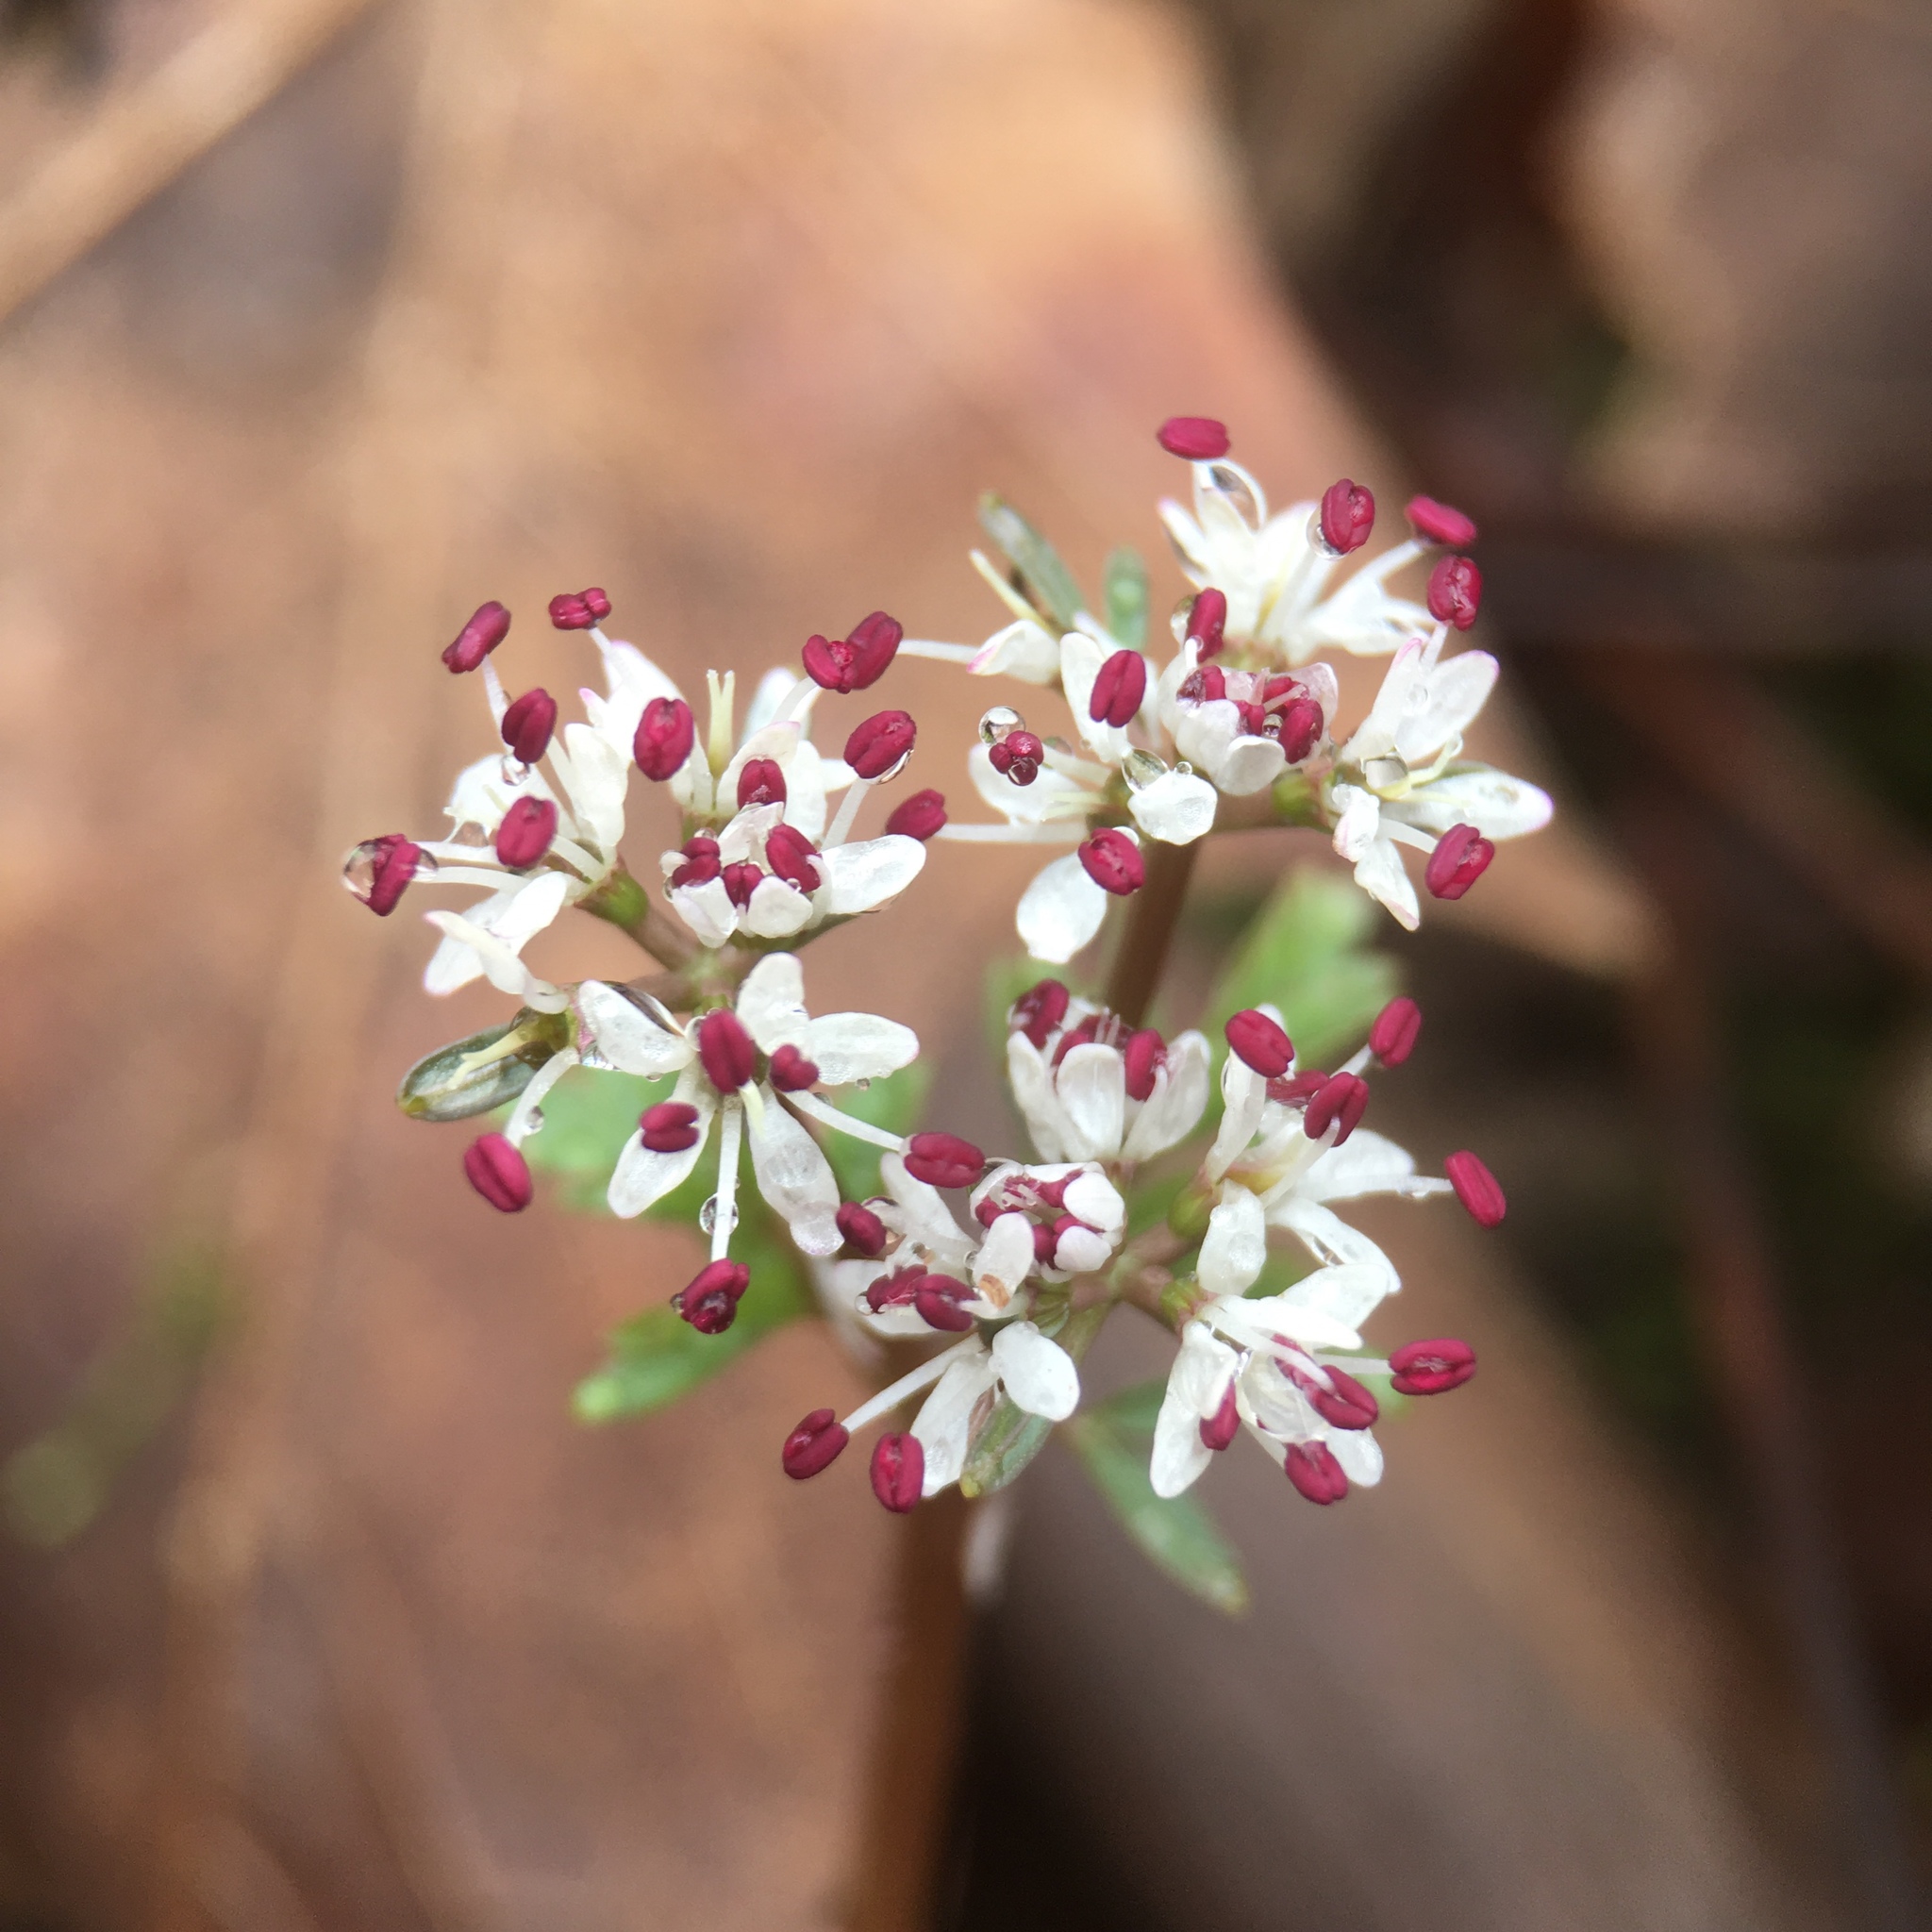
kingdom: Plantae
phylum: Tracheophyta
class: Magnoliopsida
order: Apiales
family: Apiaceae
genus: Erigenia
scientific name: Erigenia bulbosa
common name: Pepper-and-salt
